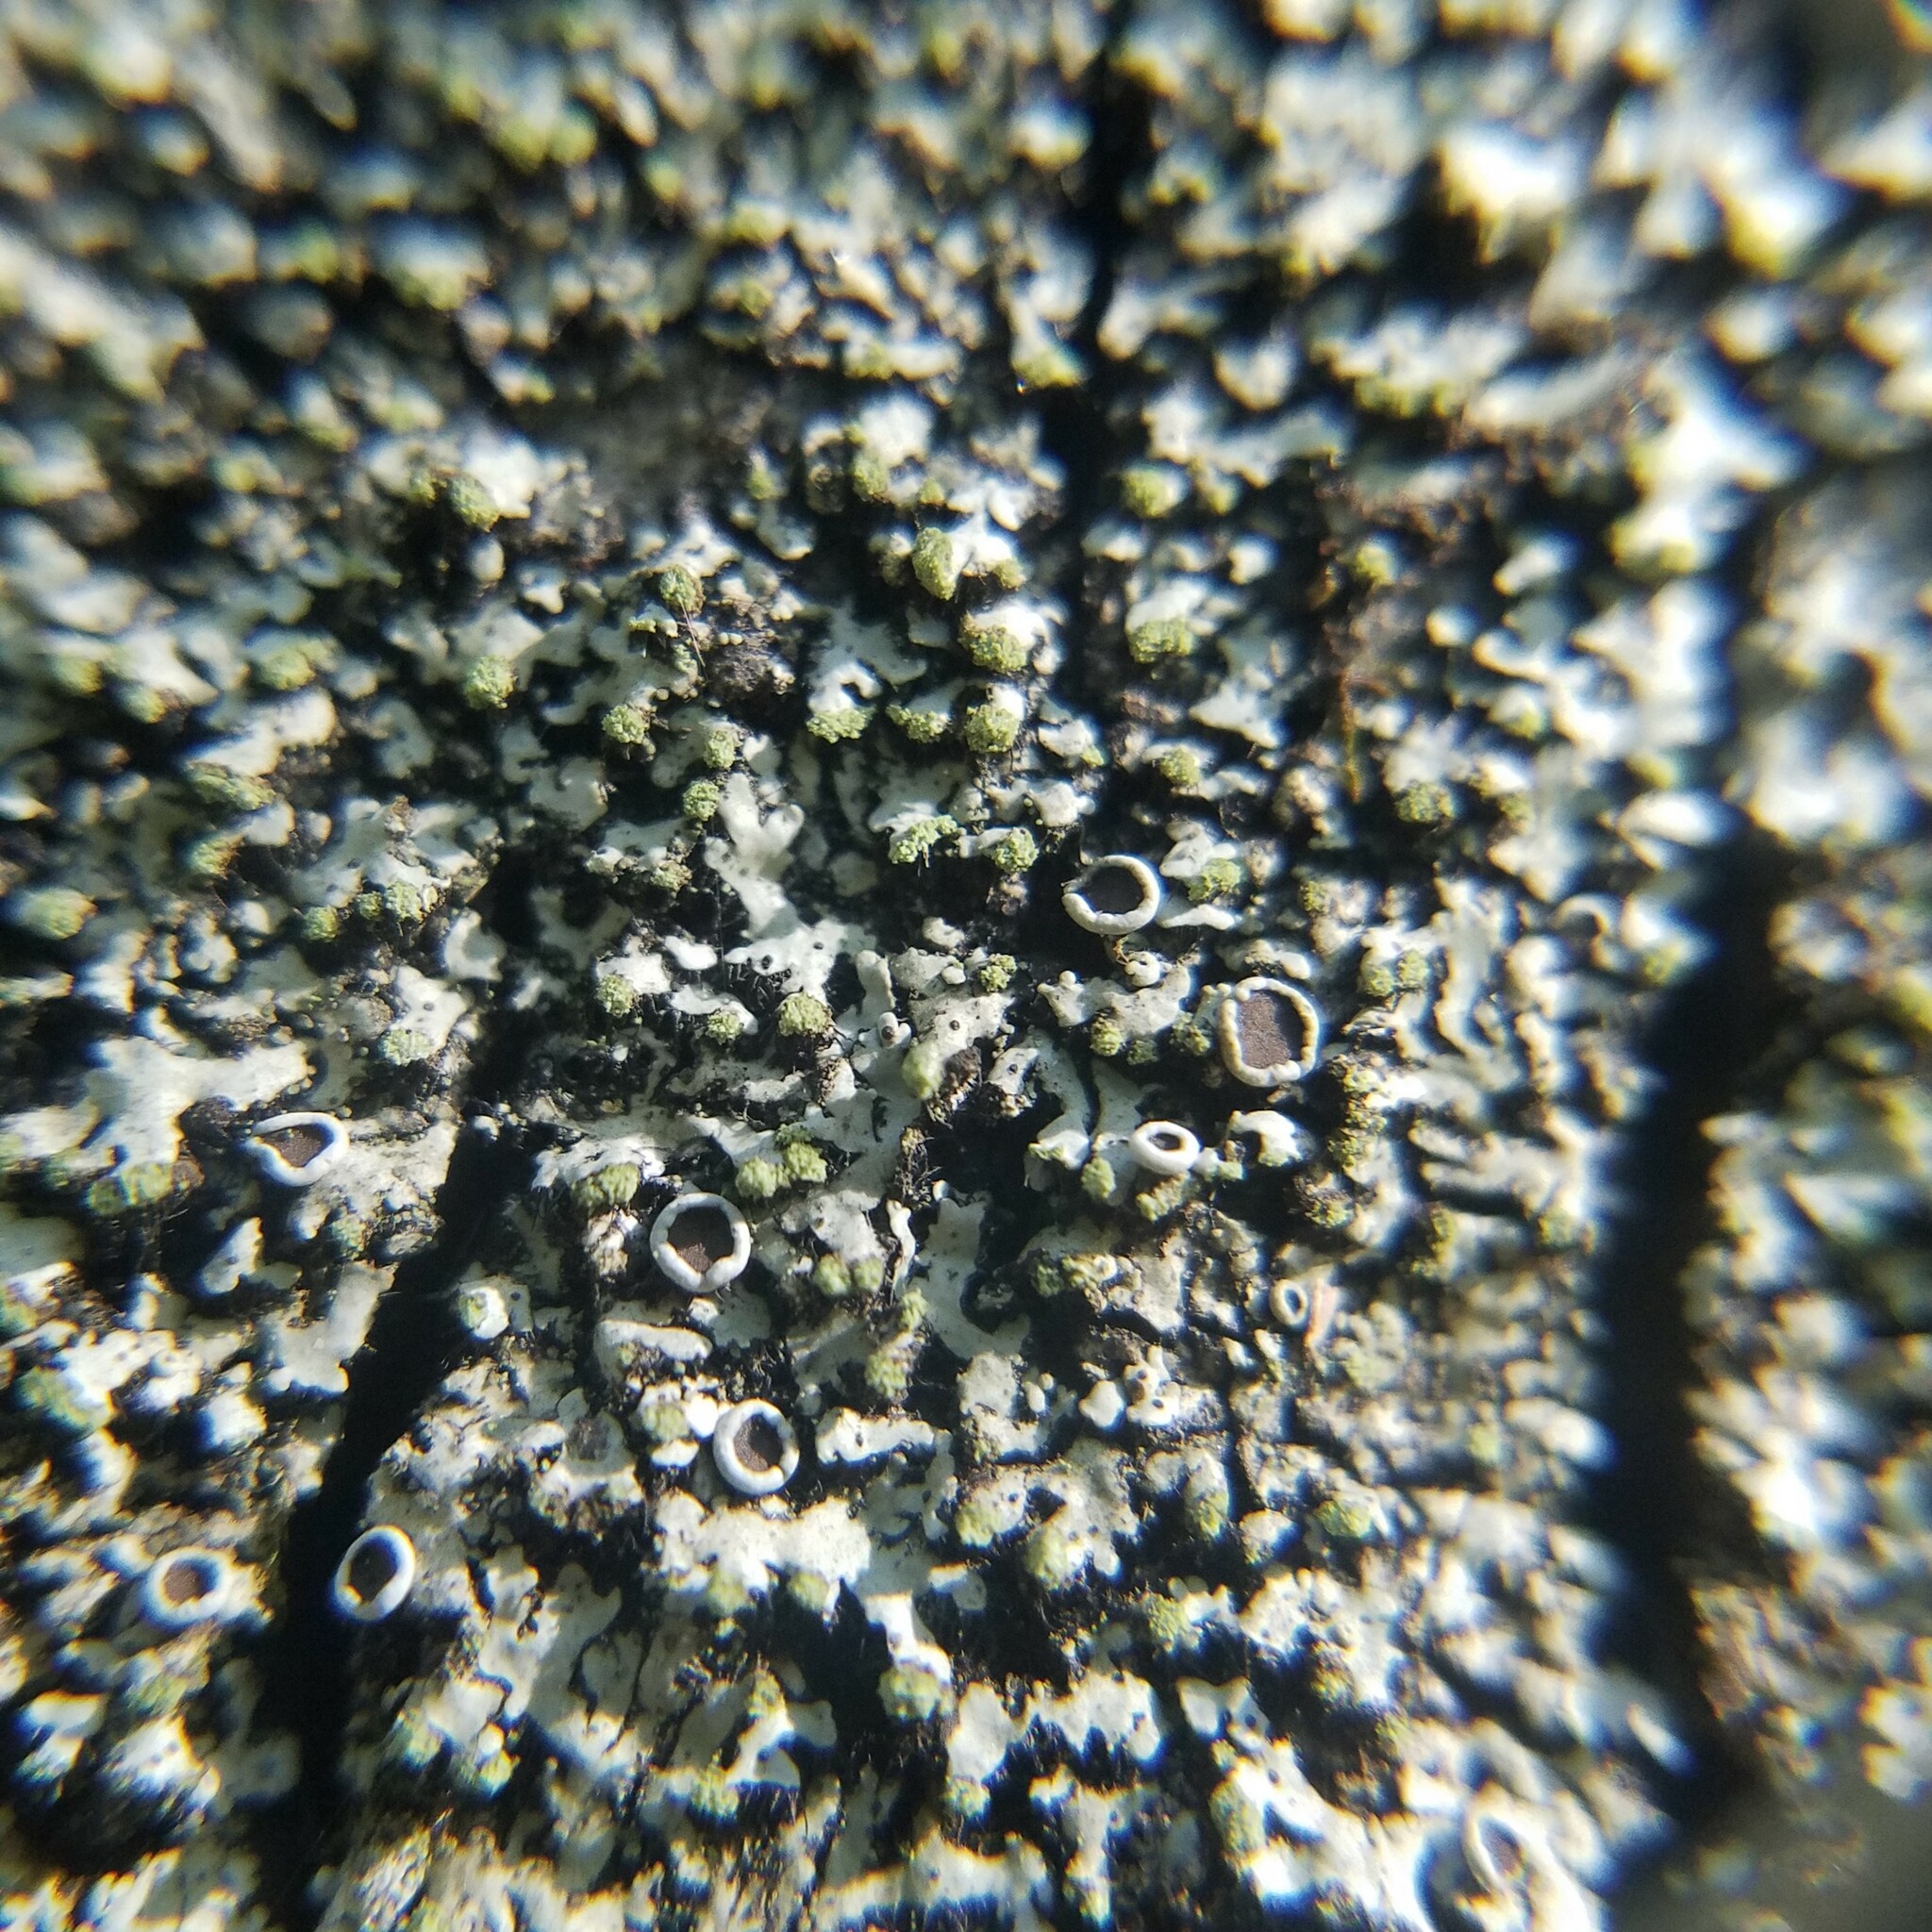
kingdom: Fungi
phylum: Ascomycota
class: Lecanoromycetes
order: Caliciales
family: Physciaceae
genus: Phaeophyscia
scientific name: Phaeophyscia pusilloides
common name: Pom-pom shadow lichen
